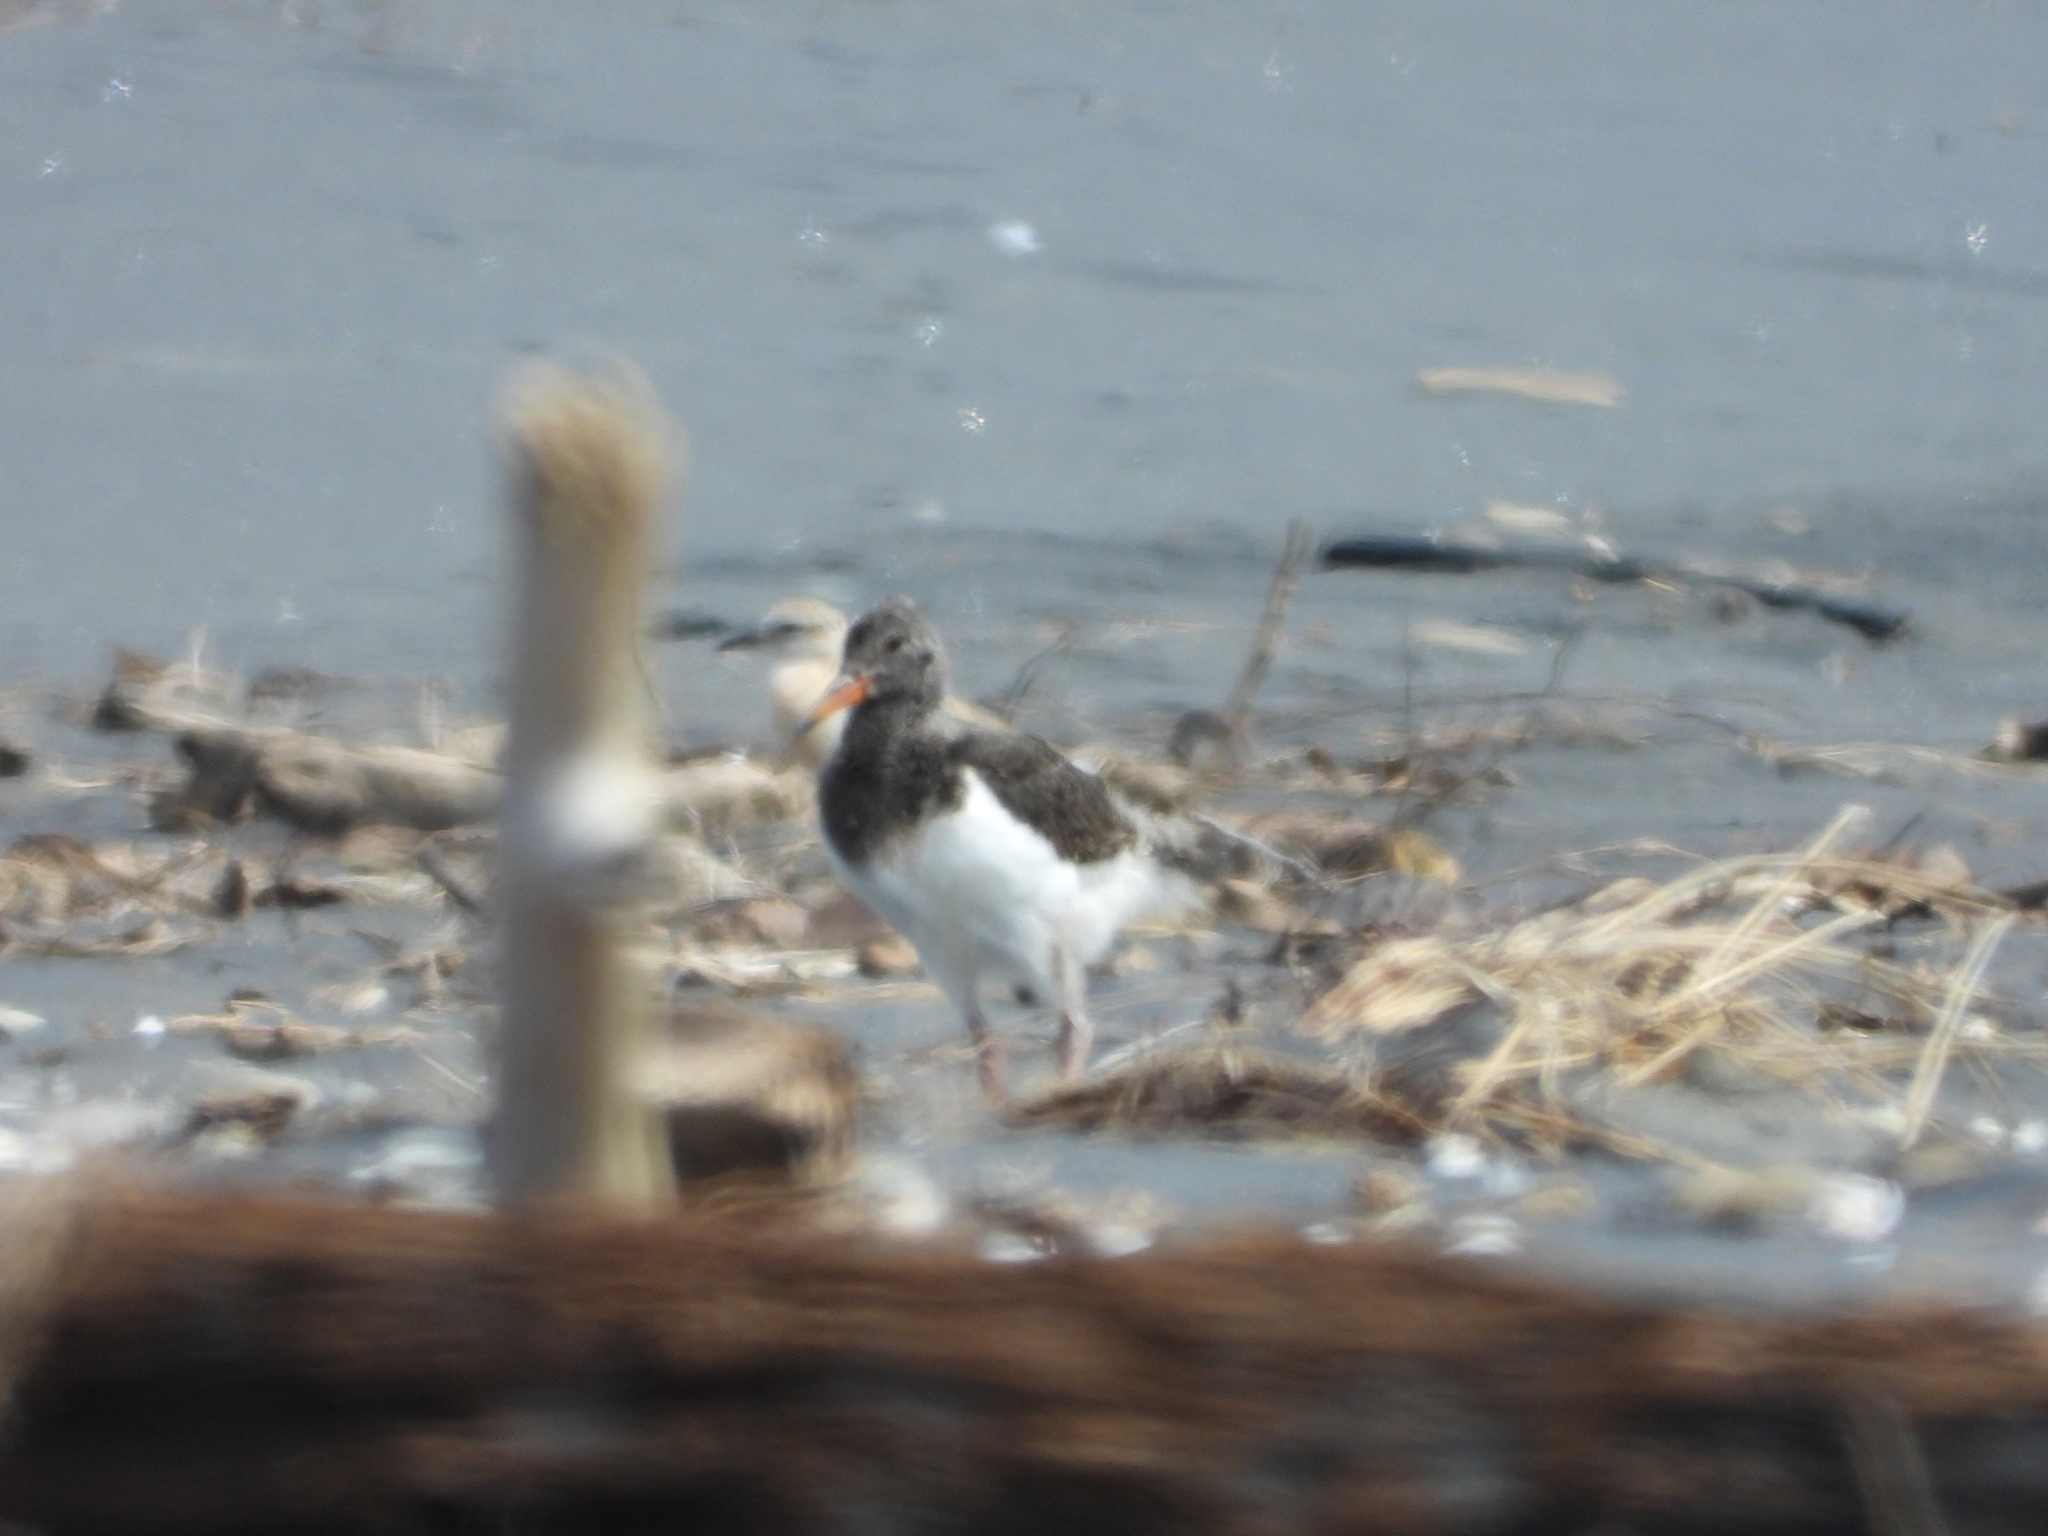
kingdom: Animalia
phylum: Chordata
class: Aves
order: Charadriiformes
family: Haematopodidae
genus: Haematopus
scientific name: Haematopus unicolor
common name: Variable oystercatcher
